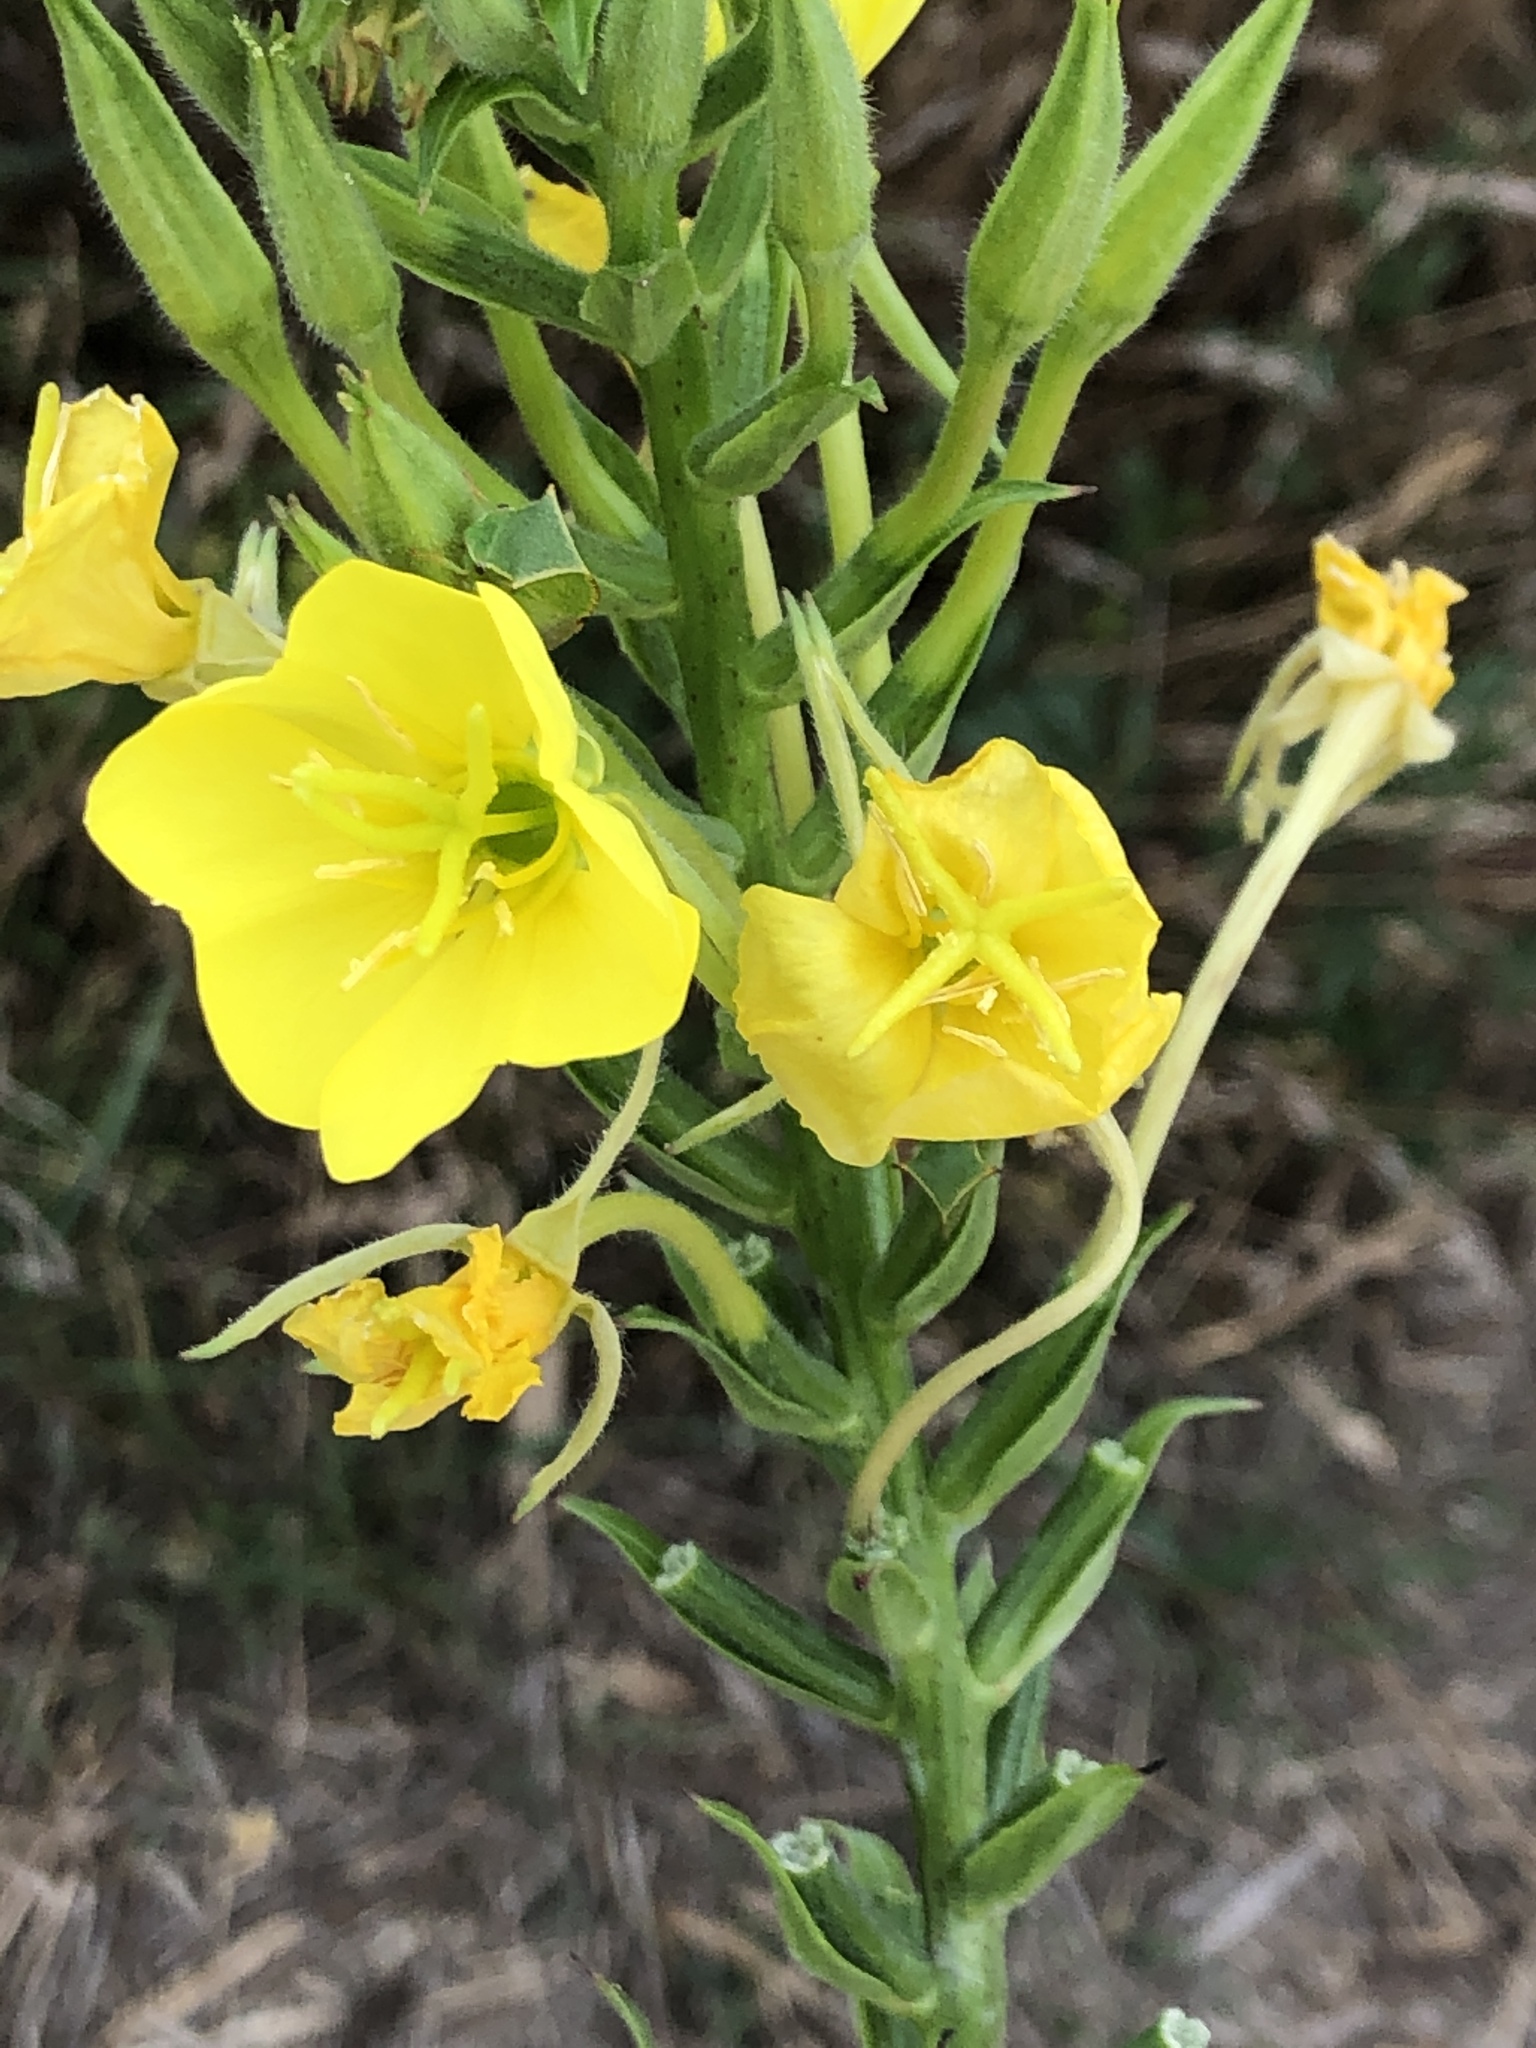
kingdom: Plantae
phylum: Tracheophyta
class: Magnoliopsida
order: Myrtales
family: Onagraceae
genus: Oenothera
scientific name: Oenothera biennis
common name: Common evening-primrose
